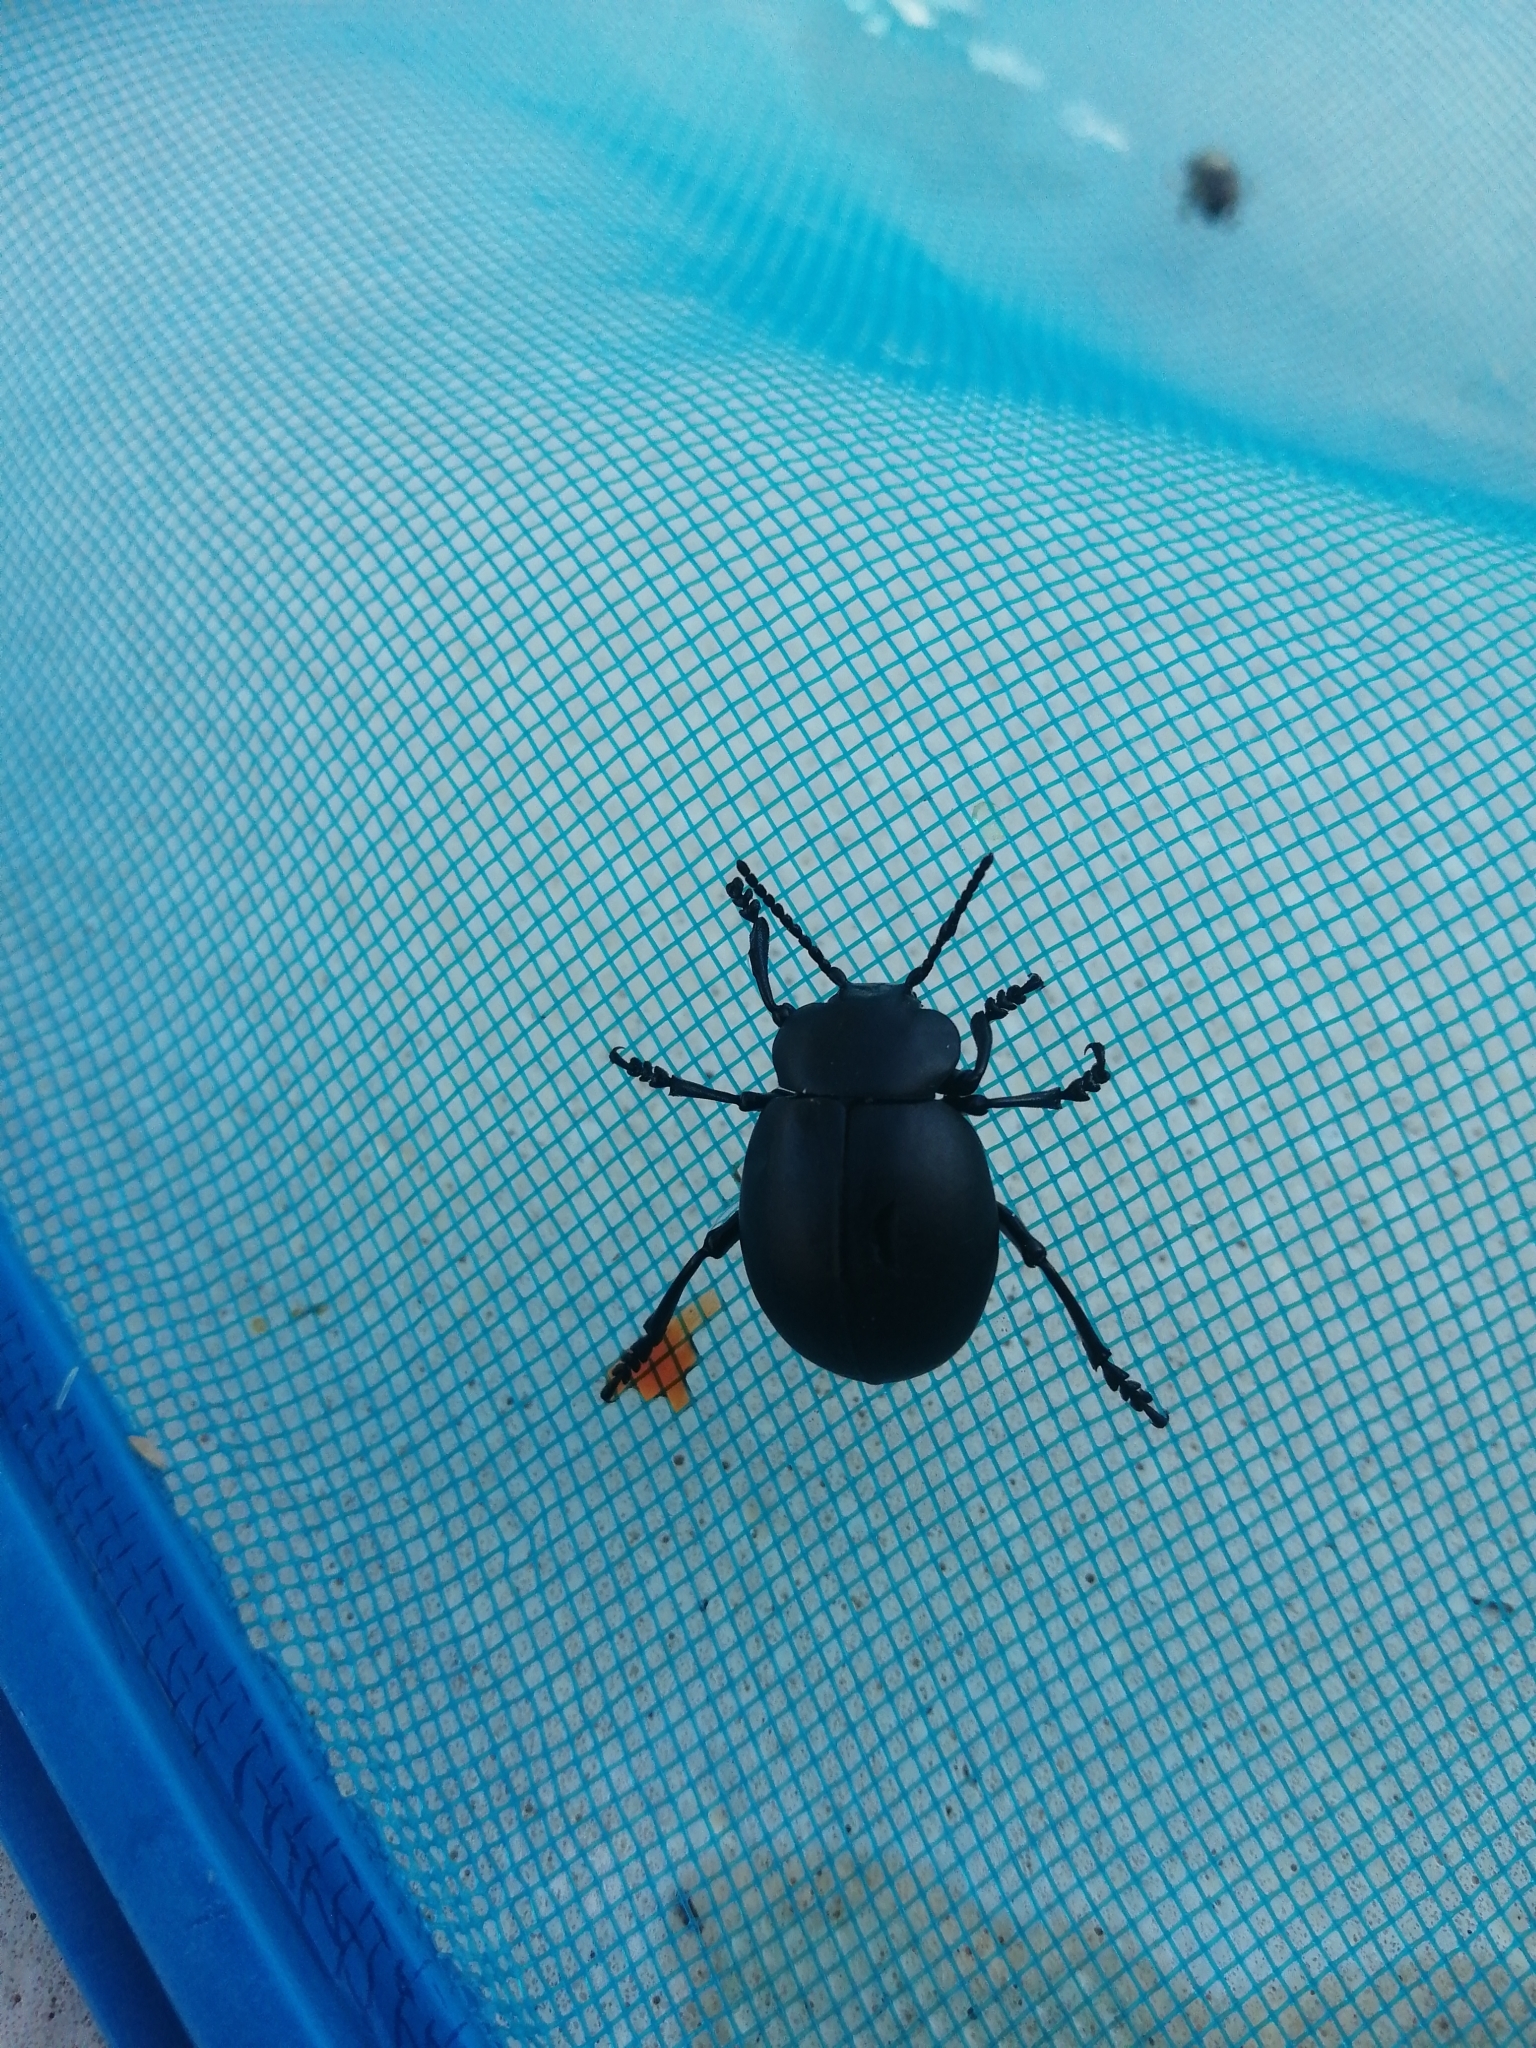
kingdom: Animalia
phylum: Arthropoda
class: Insecta
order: Coleoptera
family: Chrysomelidae
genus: Timarcha
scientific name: Timarcha tenebricosa
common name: Bloody-nosed beetle
